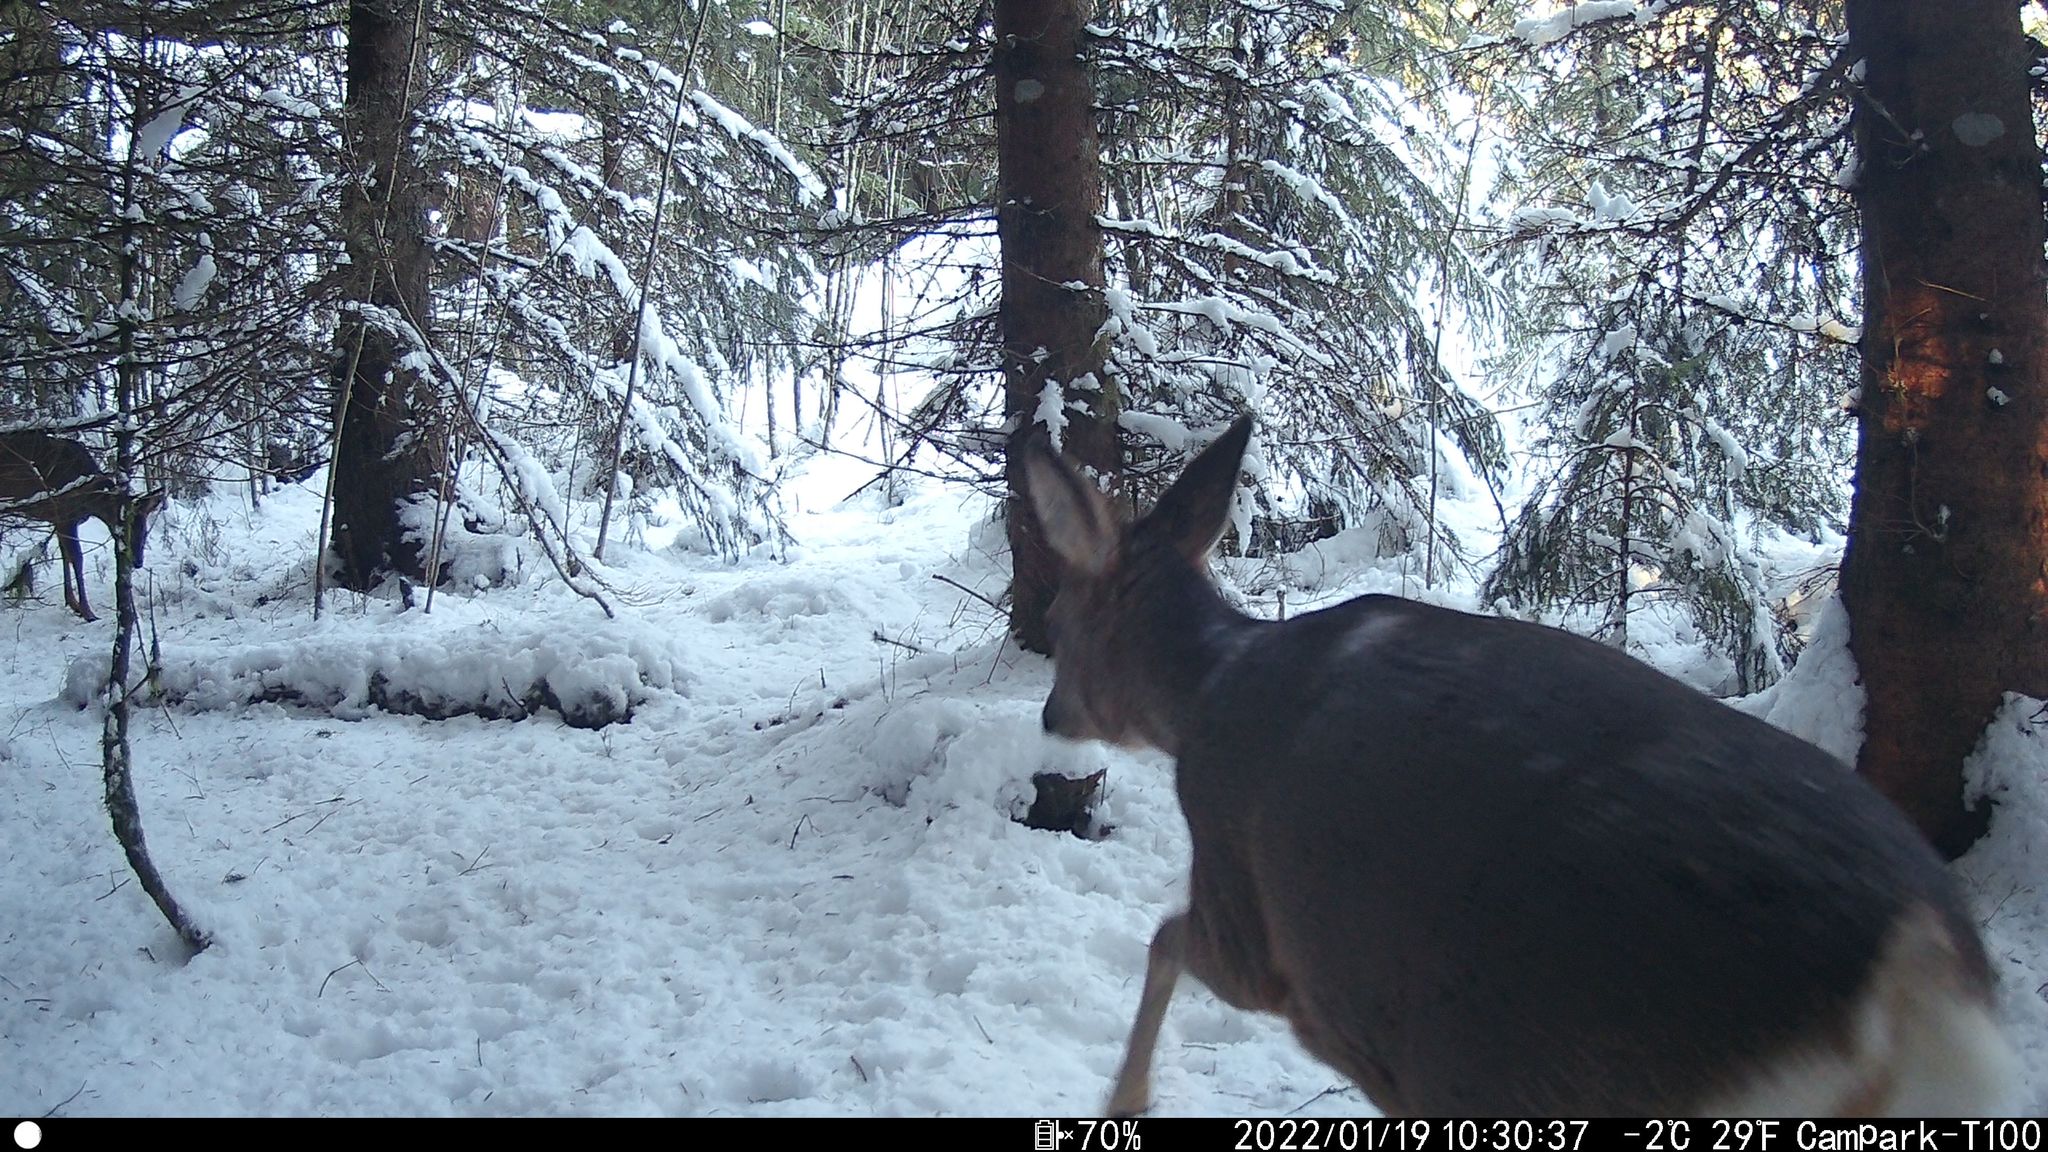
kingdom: Animalia
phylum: Chordata
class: Mammalia
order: Artiodactyla
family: Cervidae
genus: Capreolus
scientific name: Capreolus capreolus
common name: Western roe deer
